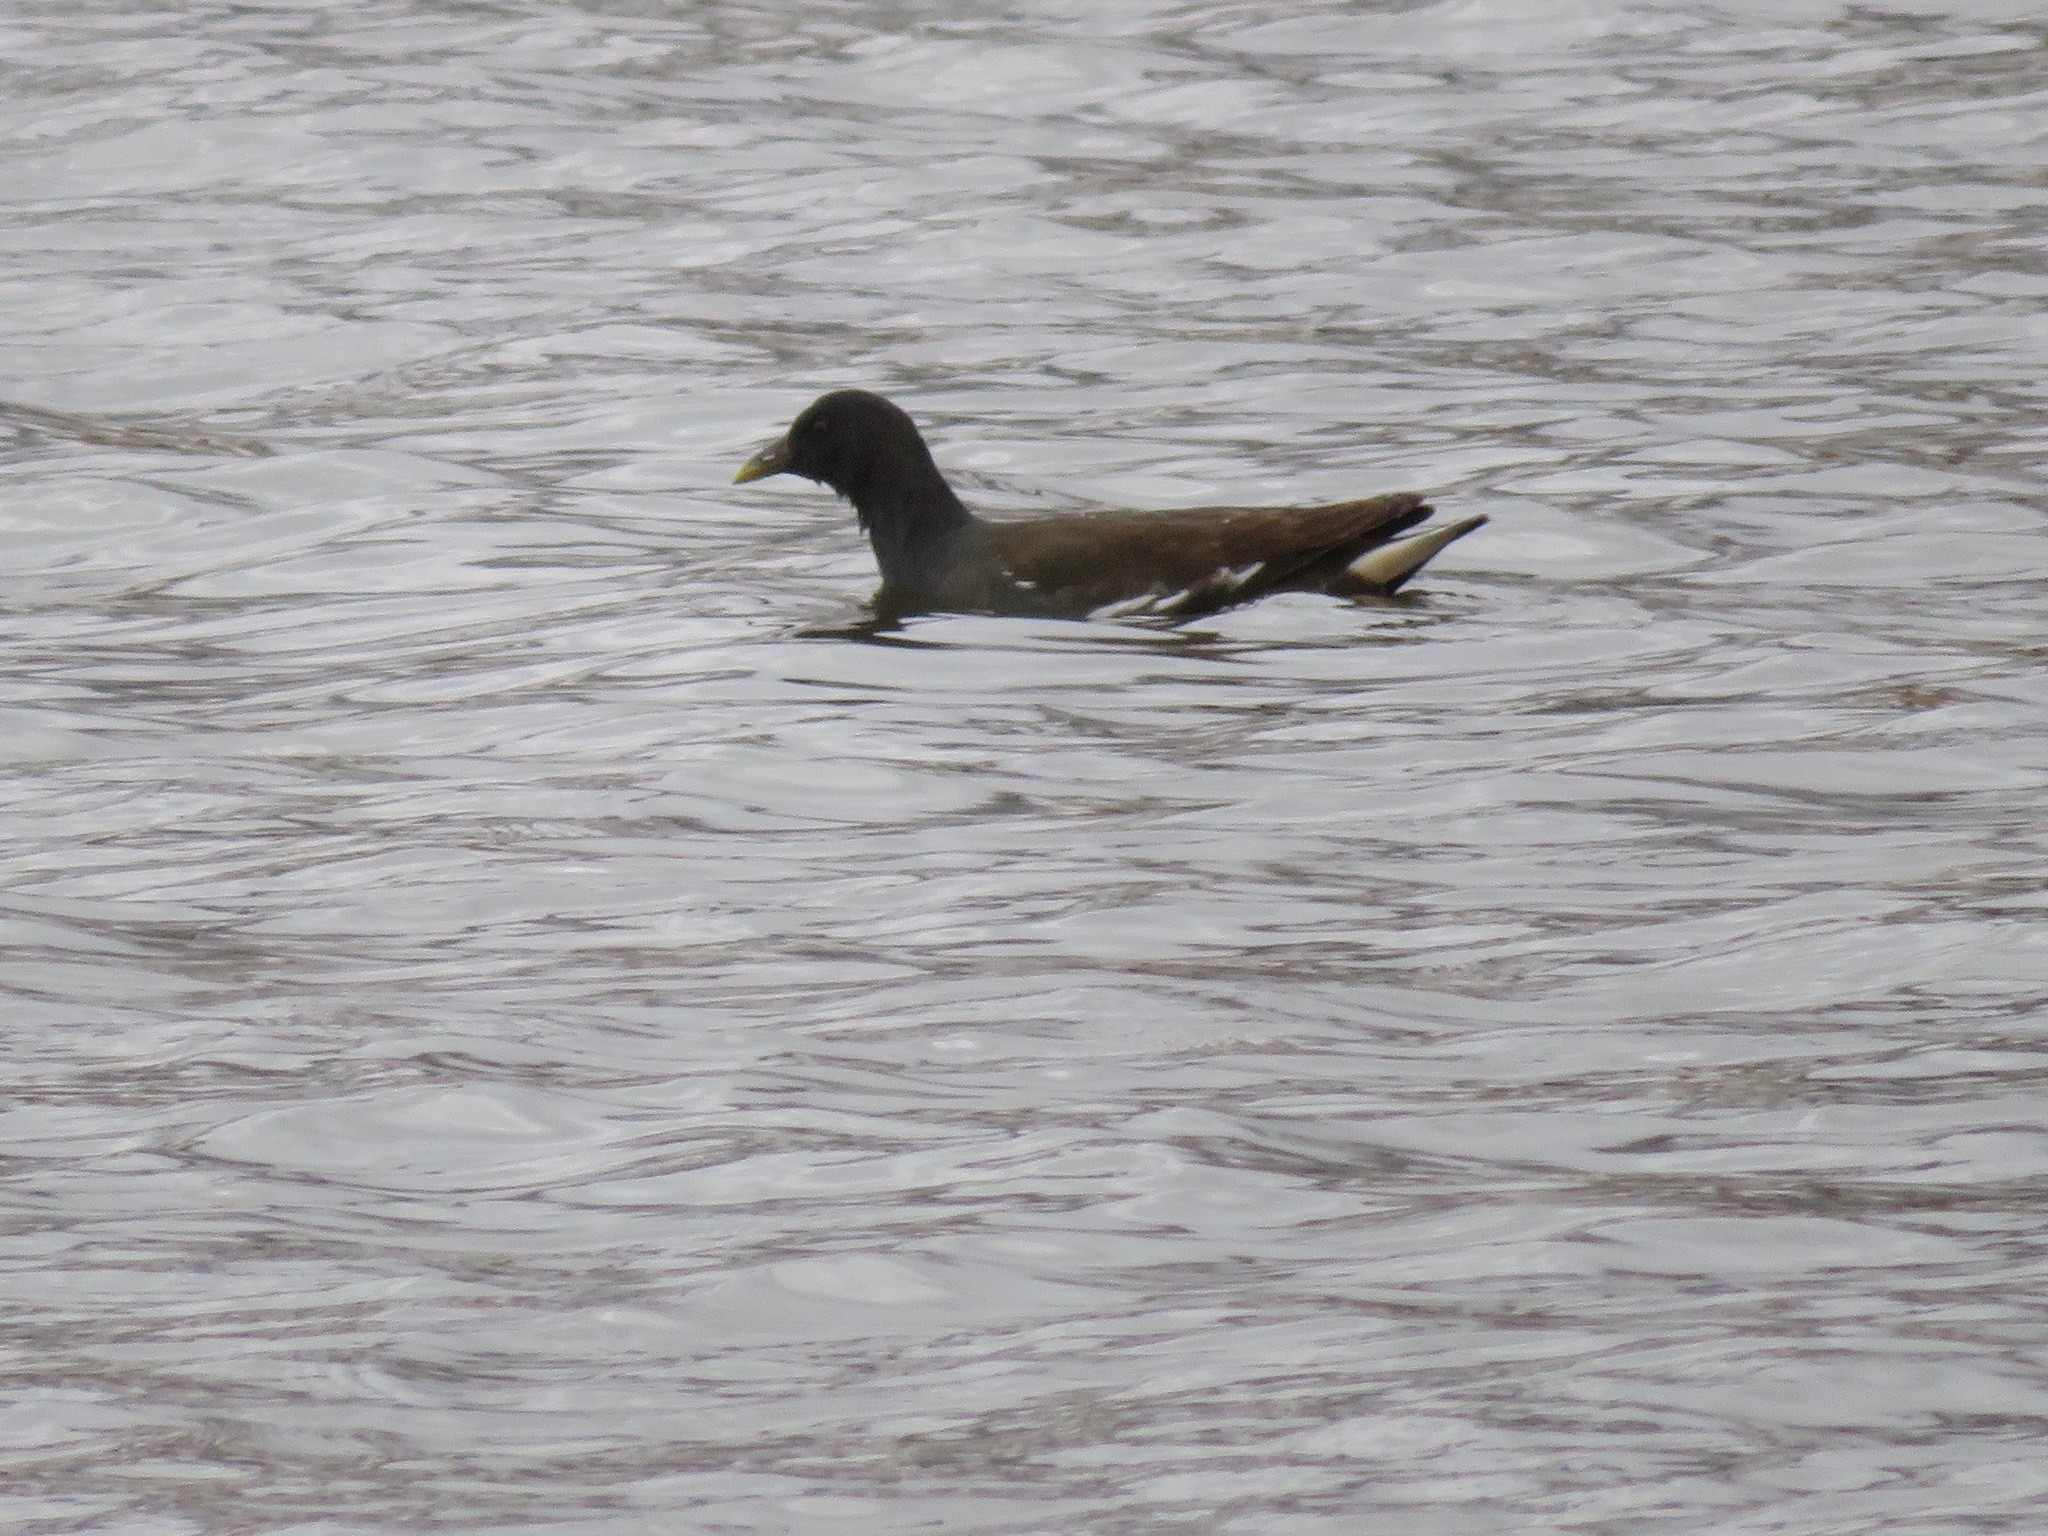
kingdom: Animalia
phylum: Chordata
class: Aves
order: Gruiformes
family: Rallidae
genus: Gallinula
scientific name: Gallinula chloropus
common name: Common moorhen
